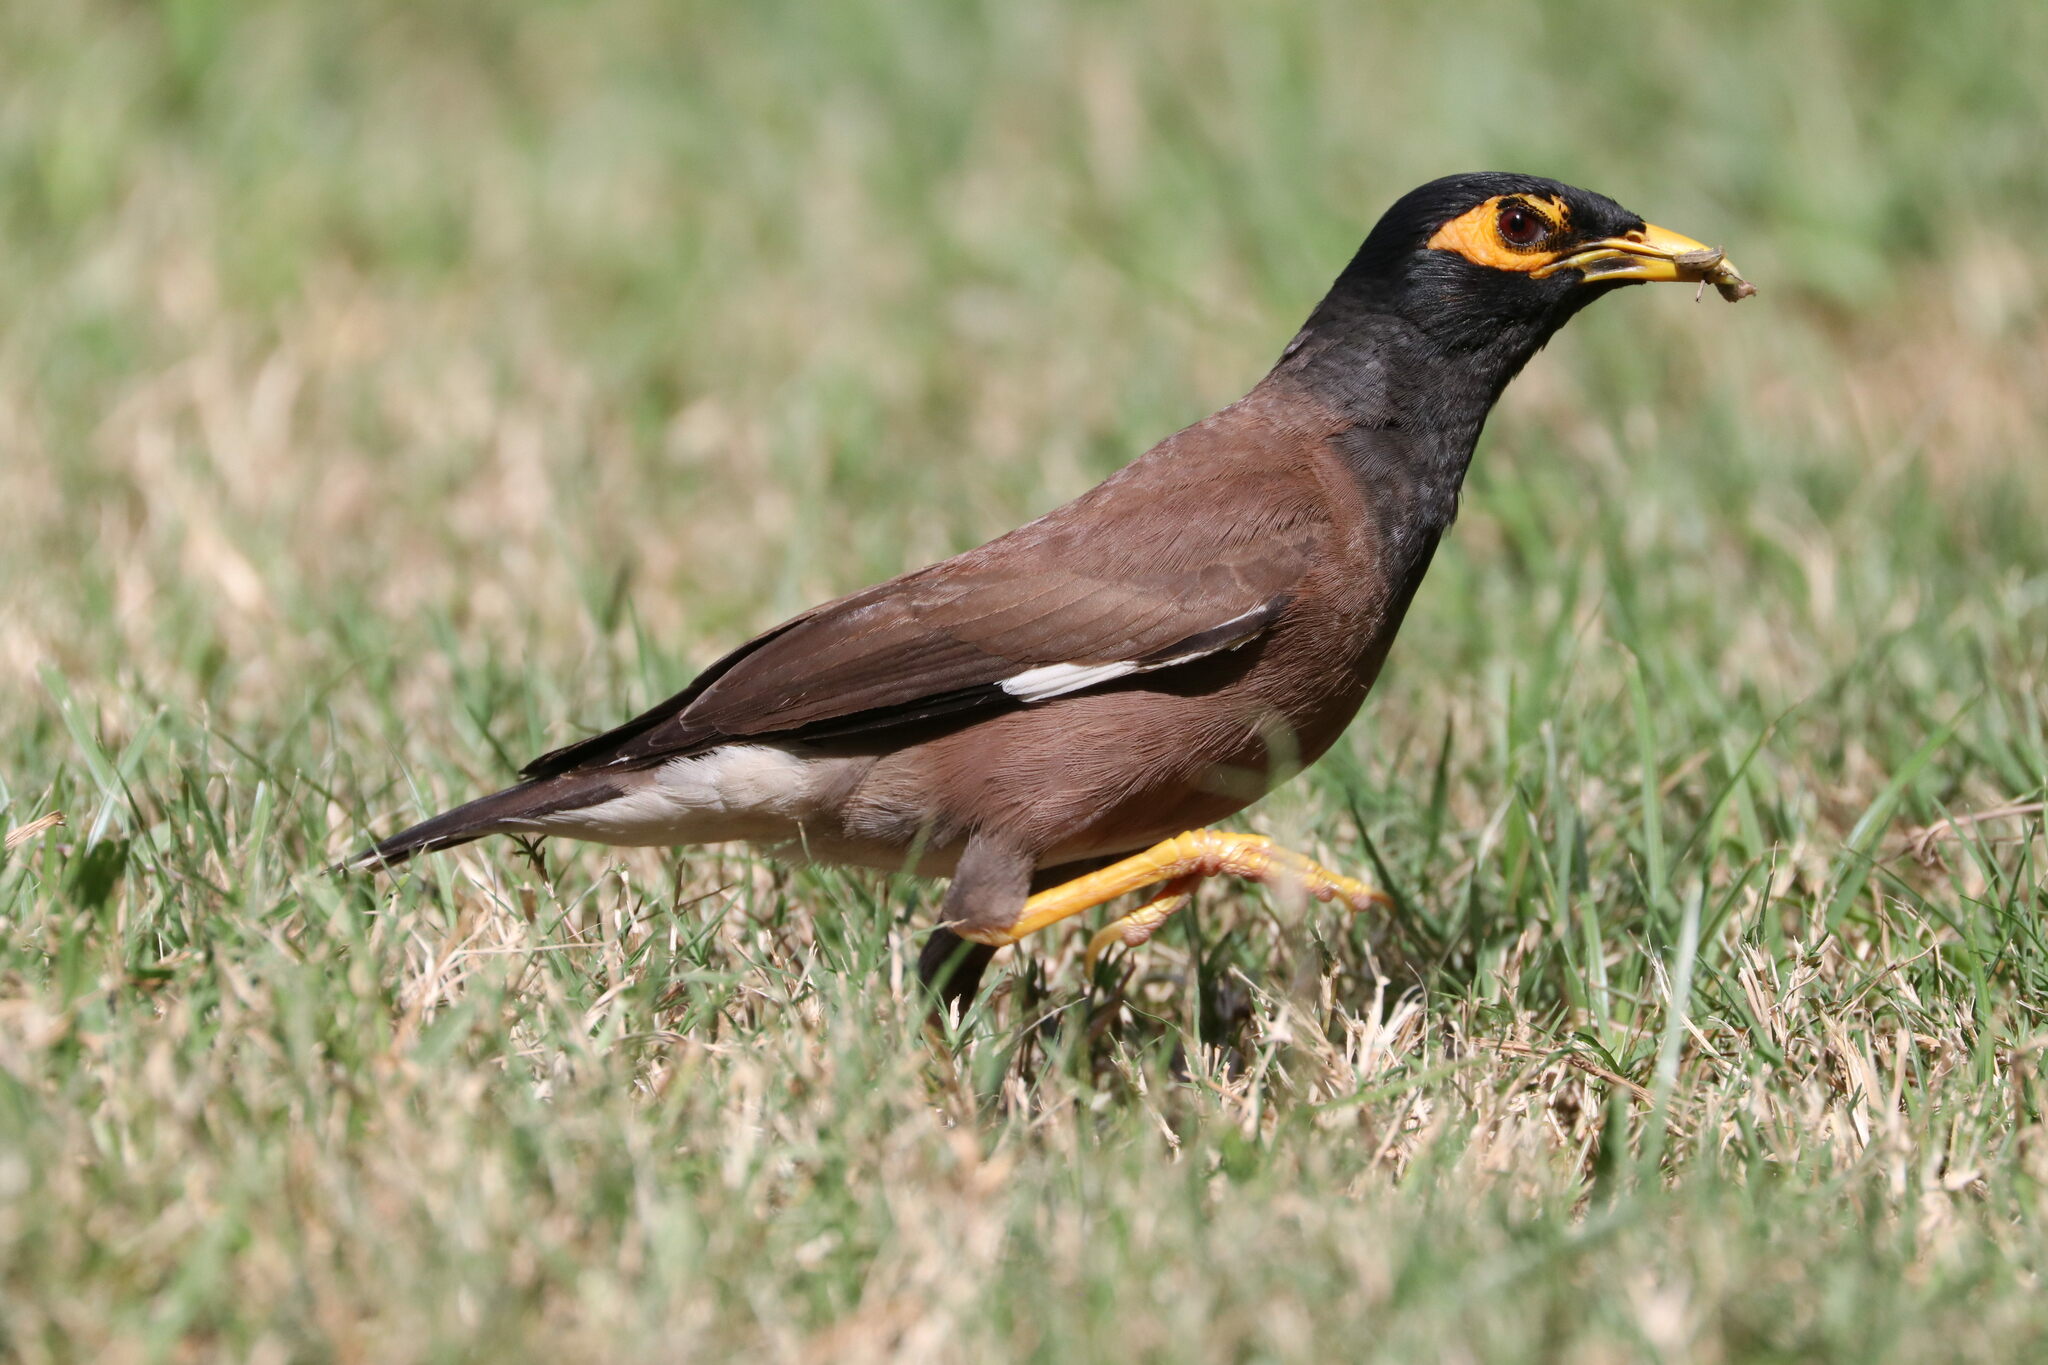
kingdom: Animalia
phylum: Chordata
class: Aves
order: Passeriformes
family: Sturnidae
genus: Acridotheres
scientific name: Acridotheres tristis
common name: Common myna
